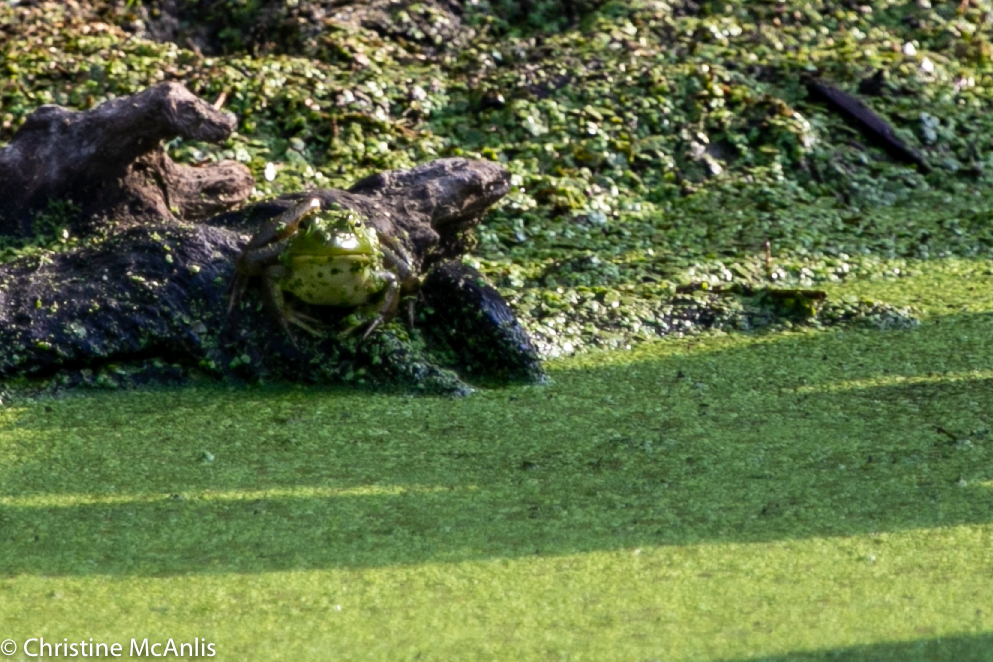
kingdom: Animalia
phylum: Chordata
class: Amphibia
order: Anura
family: Ranidae
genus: Lithobates
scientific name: Lithobates catesbeianus
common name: American bullfrog
